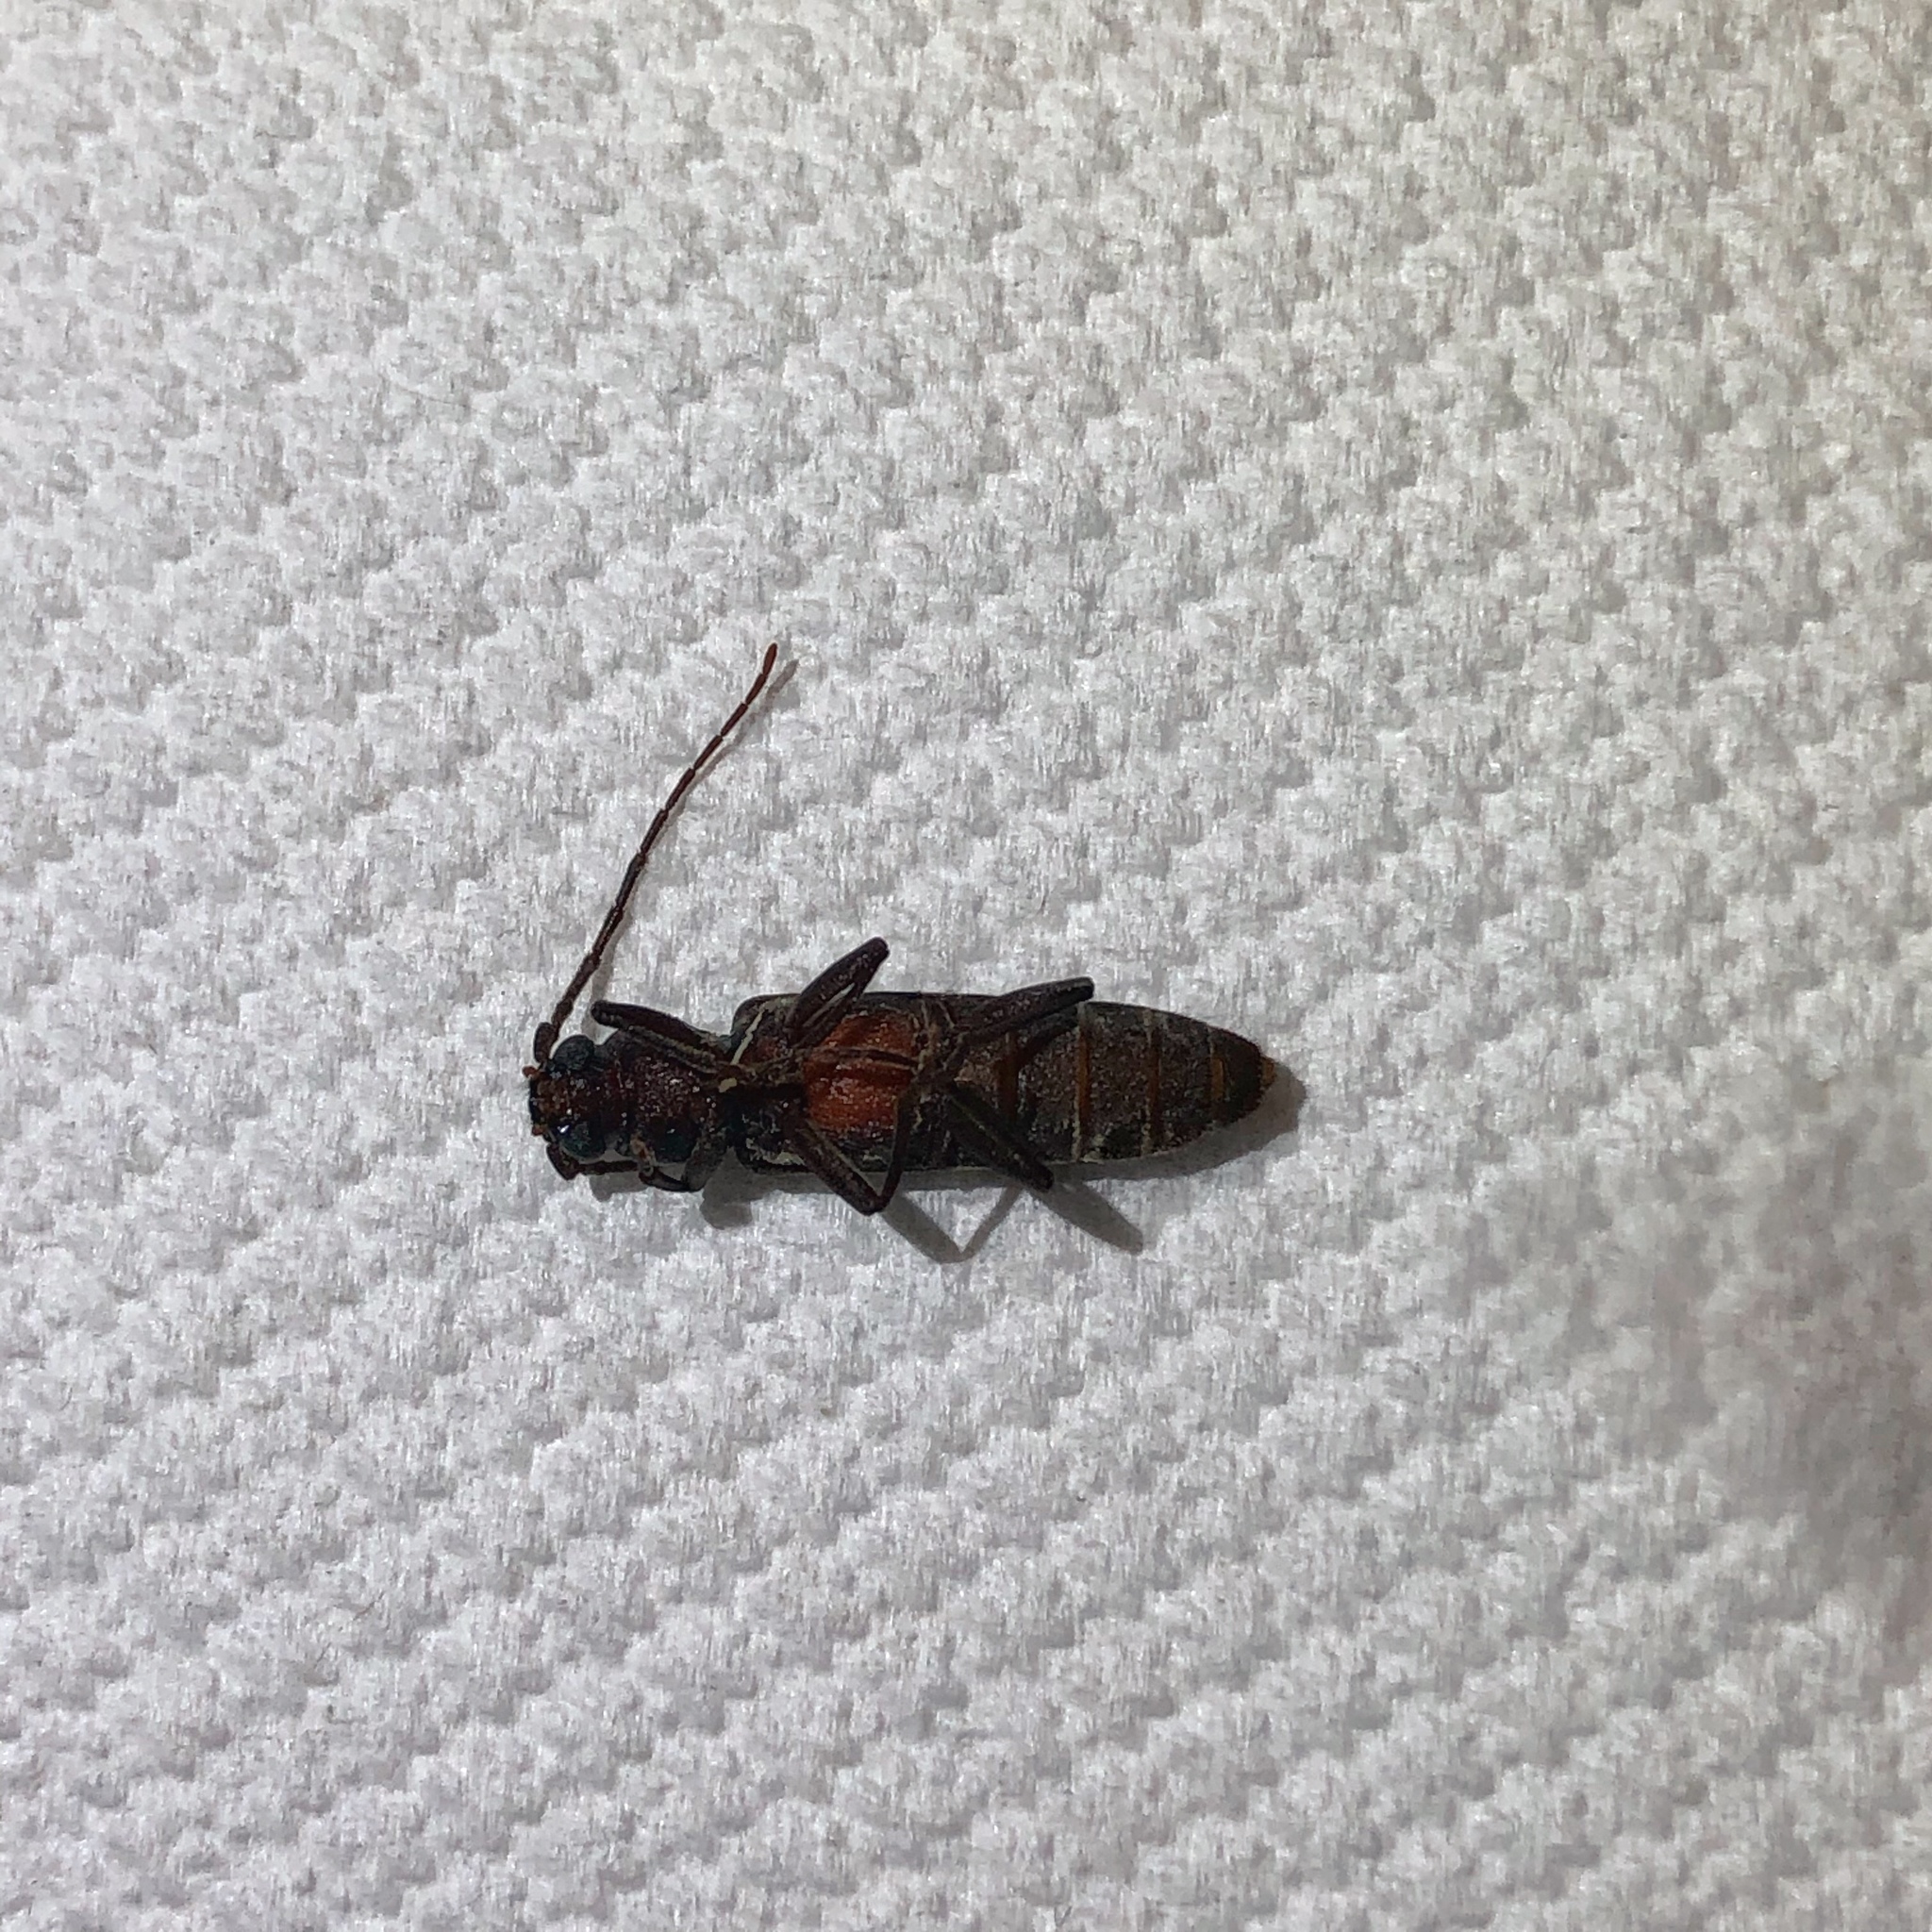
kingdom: Animalia
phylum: Arthropoda
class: Insecta
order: Coleoptera
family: Cerambycidae
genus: Arhopalus
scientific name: Arhopalus ferus
